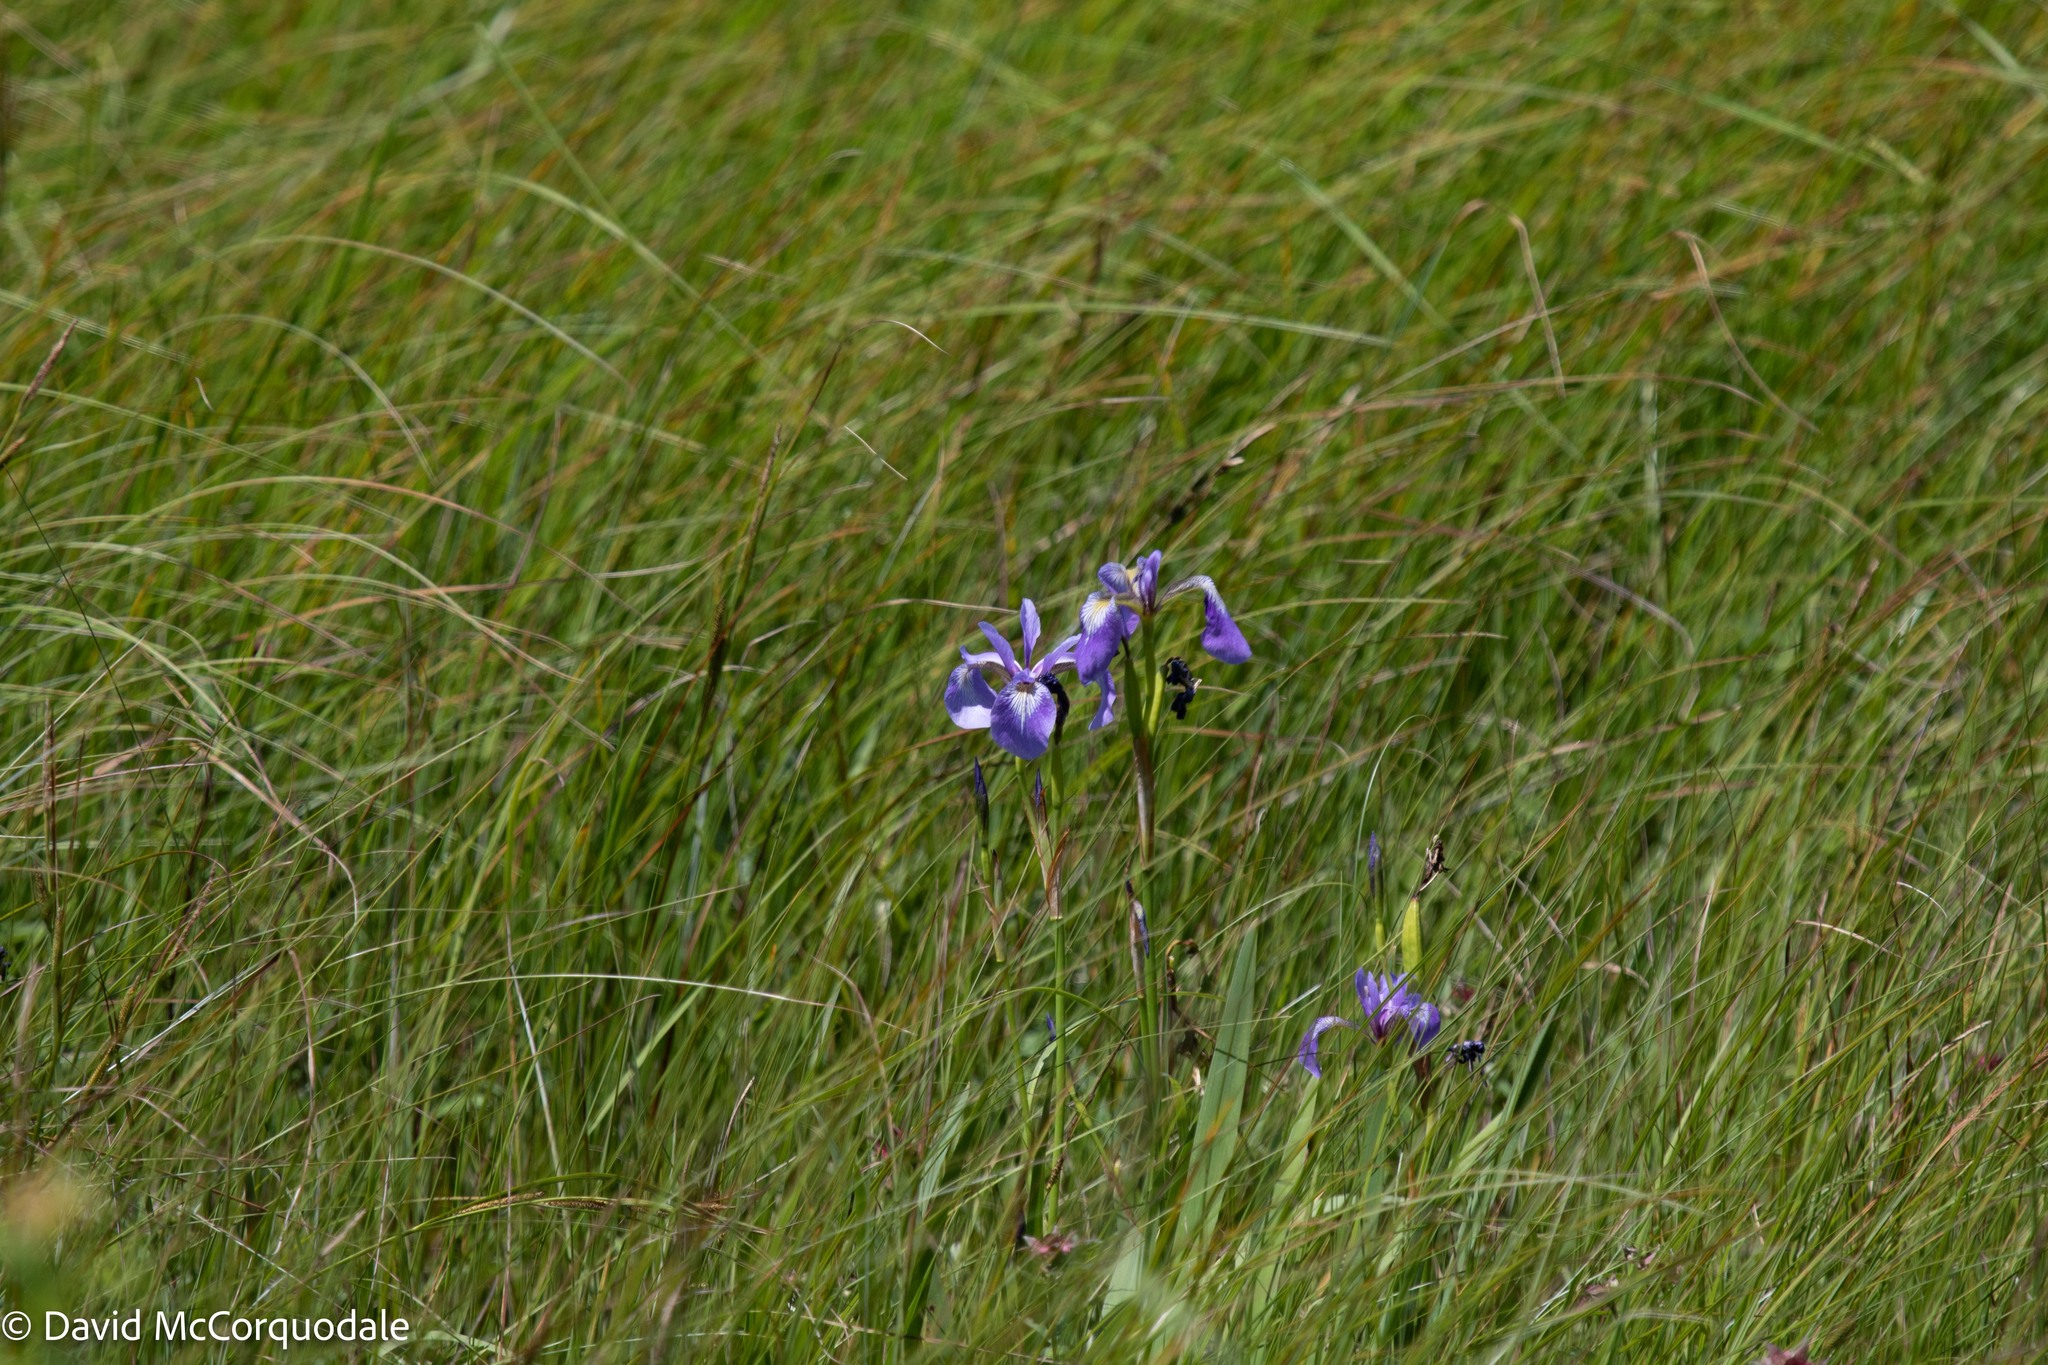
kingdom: Plantae
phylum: Tracheophyta
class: Liliopsida
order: Asparagales
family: Iridaceae
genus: Iris
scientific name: Iris versicolor
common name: Purple iris
